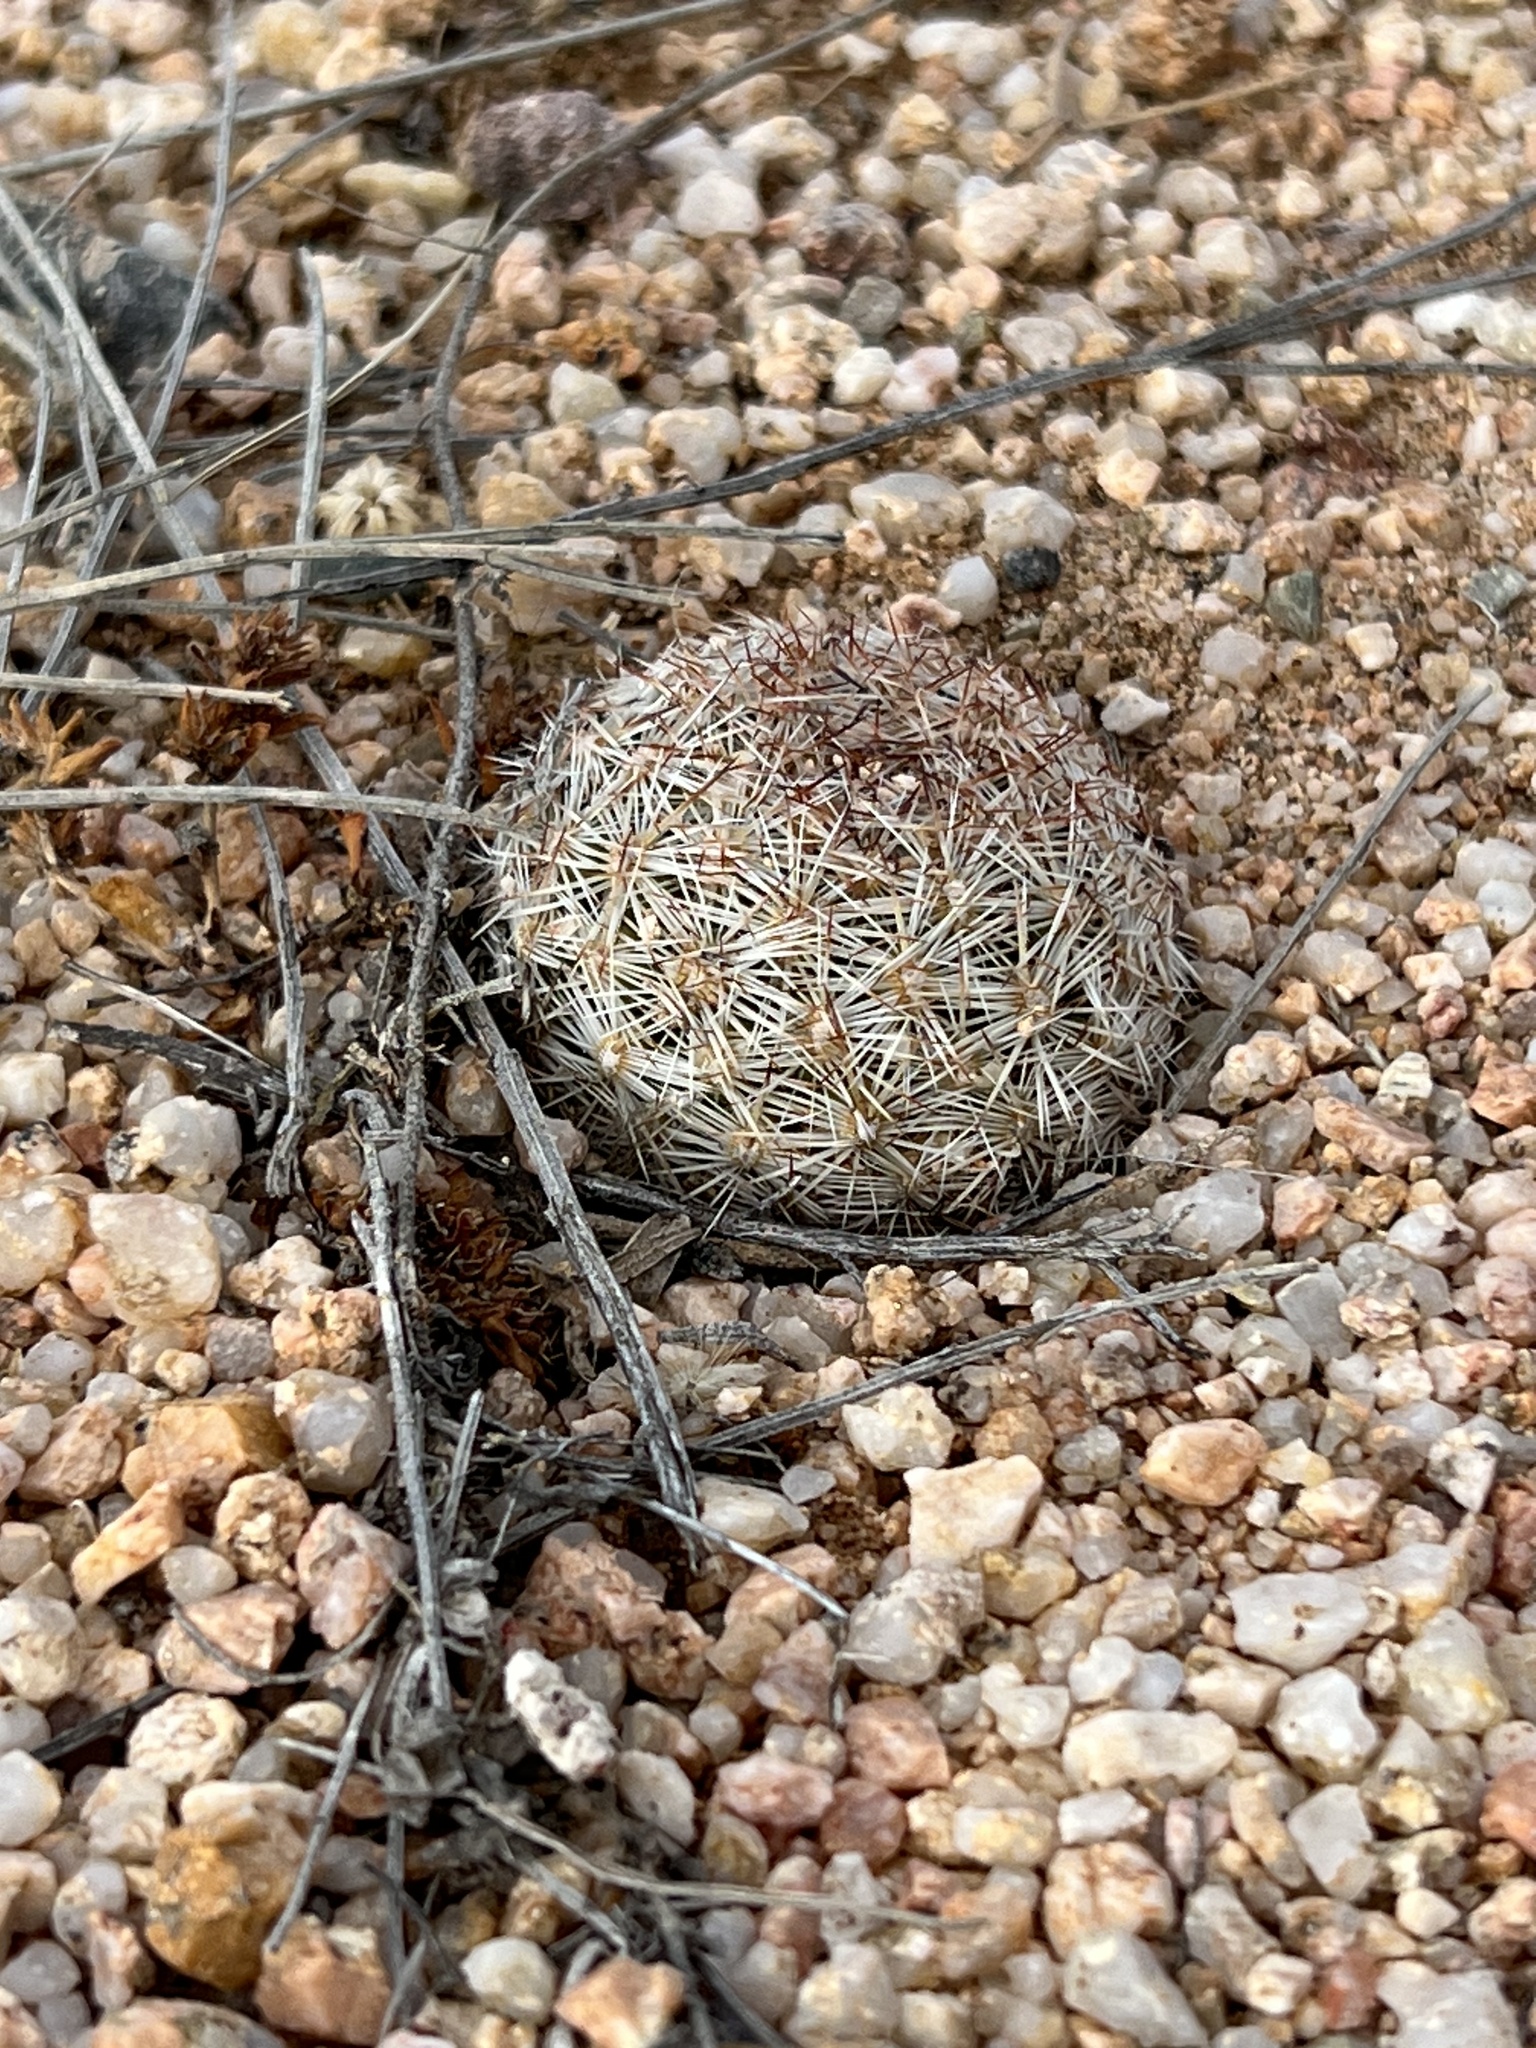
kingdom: Plantae
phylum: Tracheophyta
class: Magnoliopsida
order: Caryophyllales
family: Cactaceae
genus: Pelecyphora
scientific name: Pelecyphora vivipara
